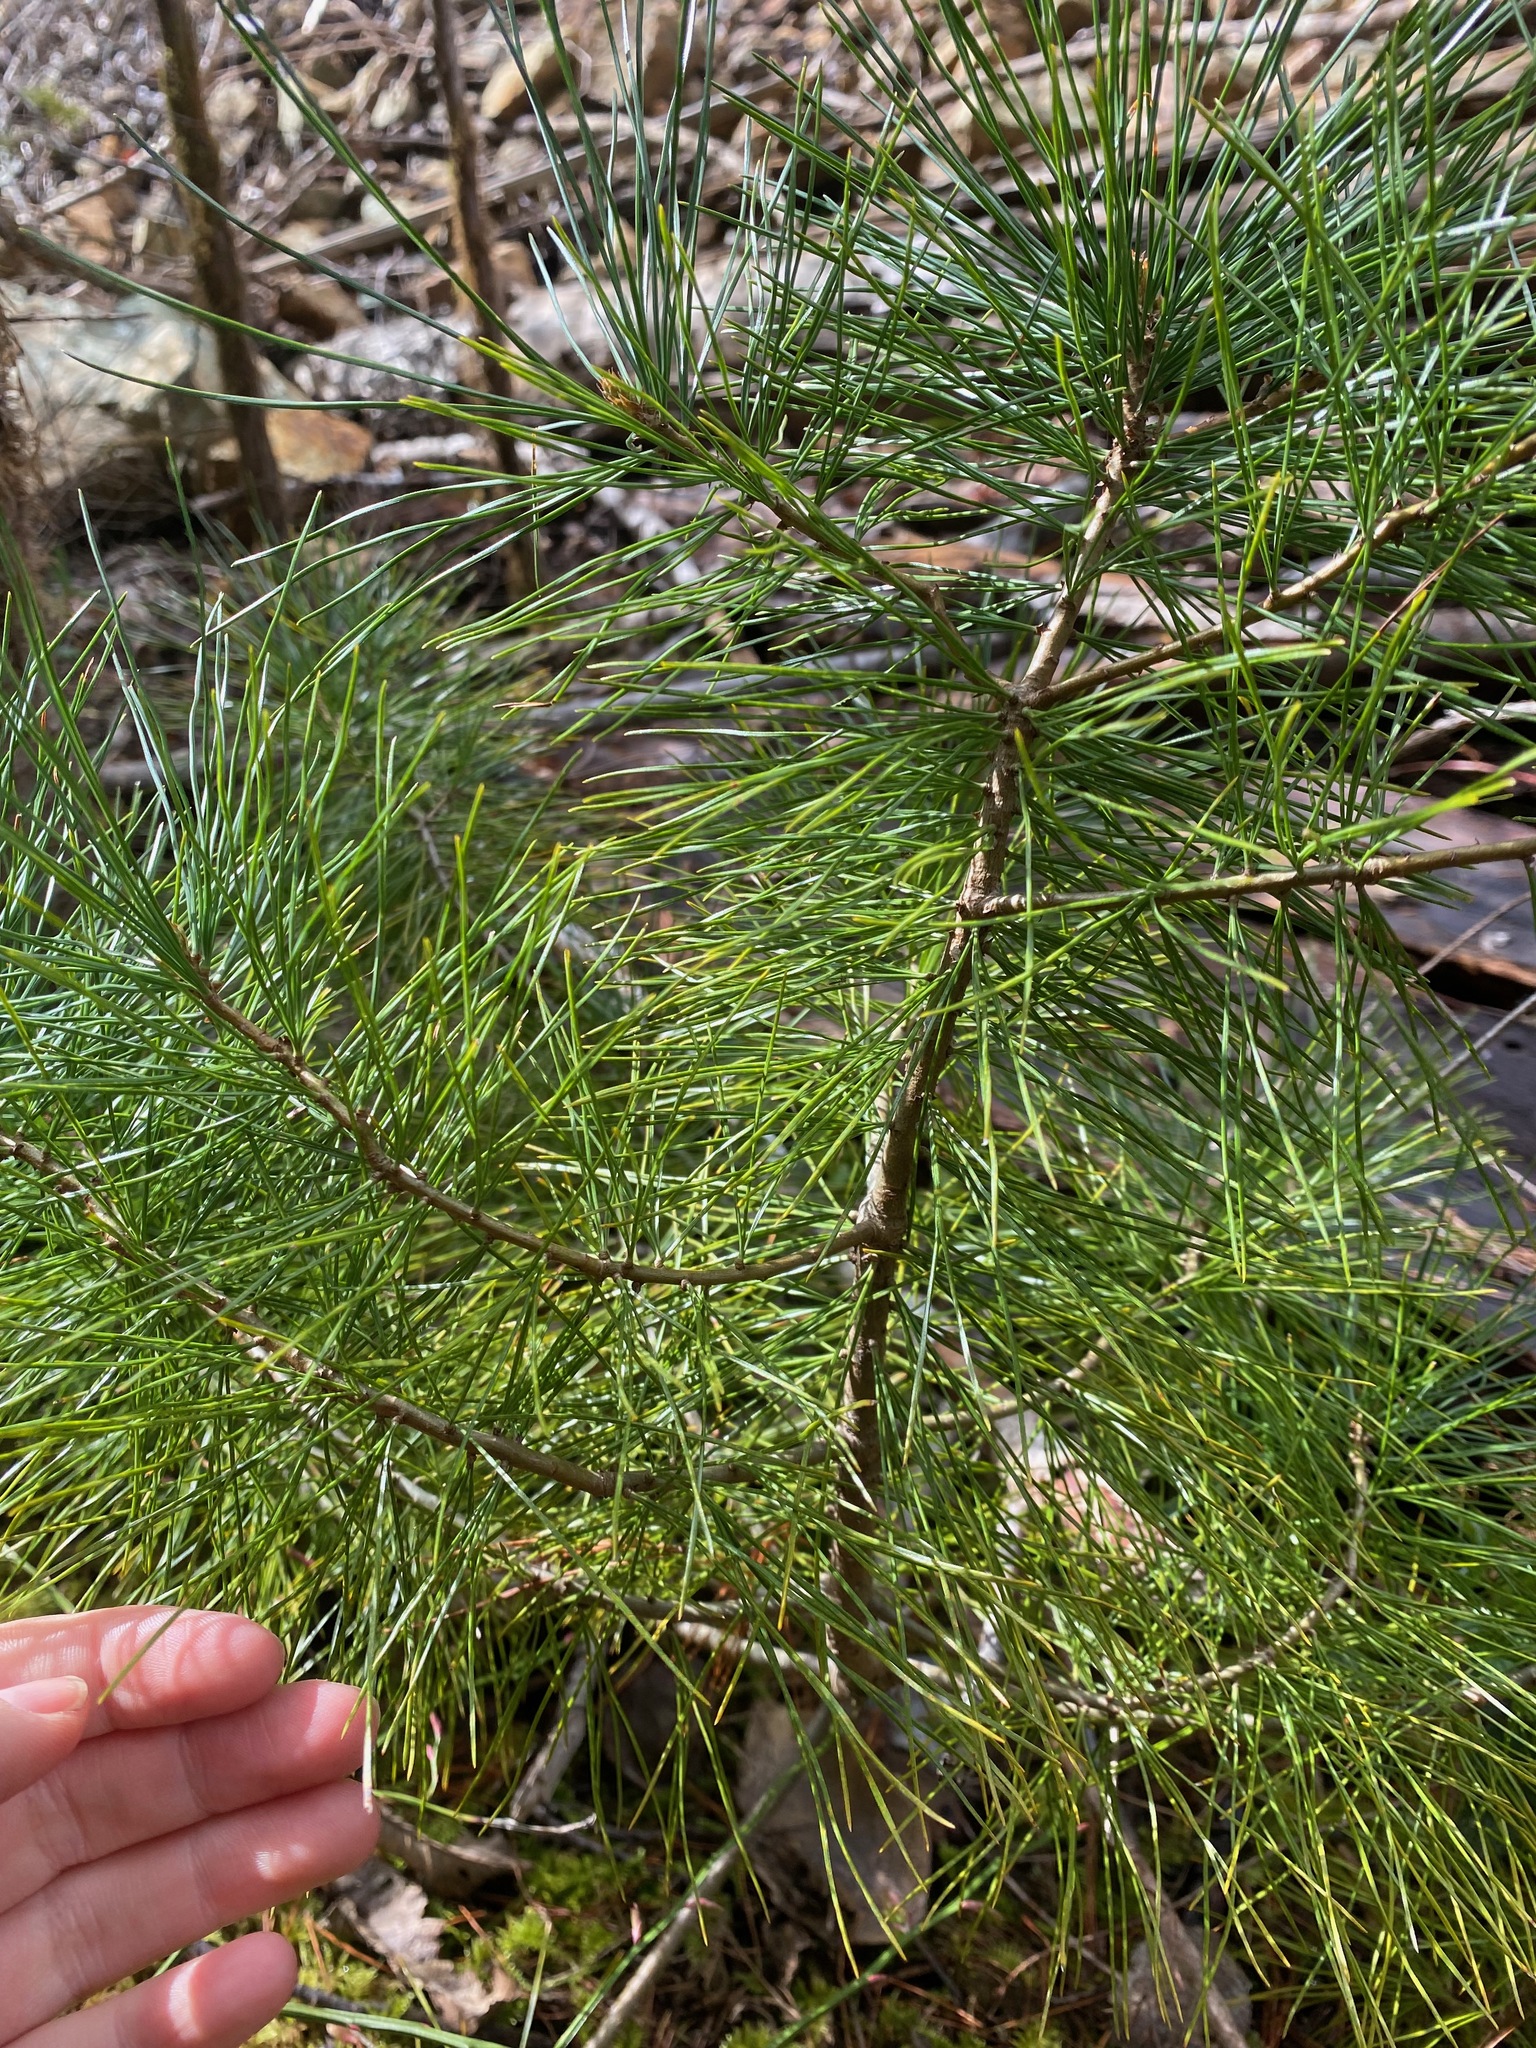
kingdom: Plantae
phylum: Tracheophyta
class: Pinopsida
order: Pinales
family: Pinaceae
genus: Pinus
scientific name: Pinus monticola
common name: Western white pine
